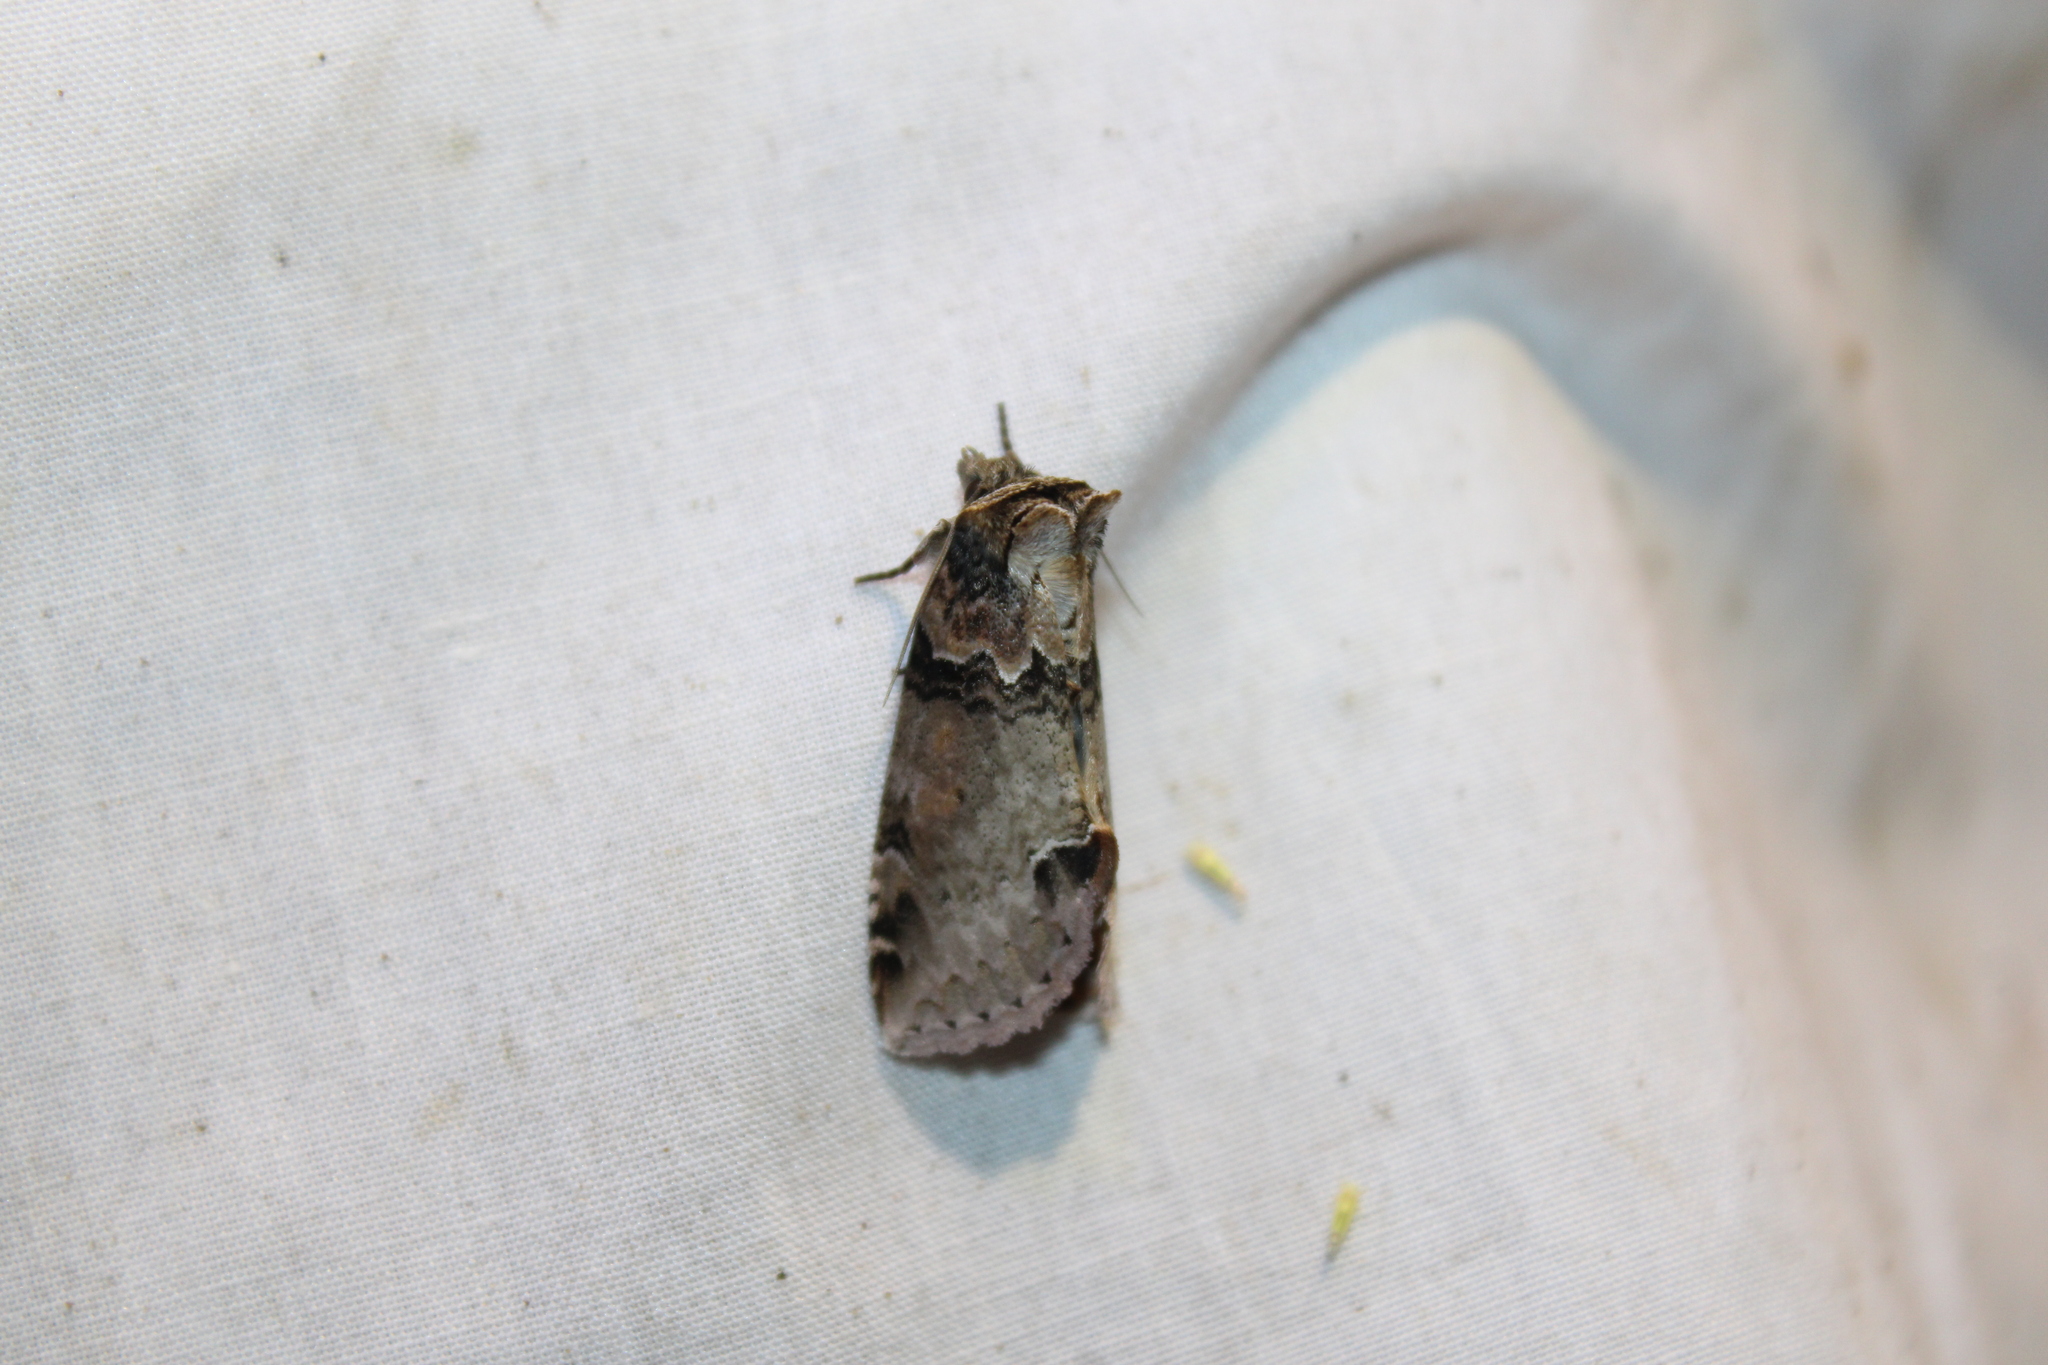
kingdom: Animalia
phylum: Arthropoda
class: Insecta
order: Lepidoptera
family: Drepanidae
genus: Pseudothyatira
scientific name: Pseudothyatira cymatophoroides
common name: Tufted thyatirid moth
